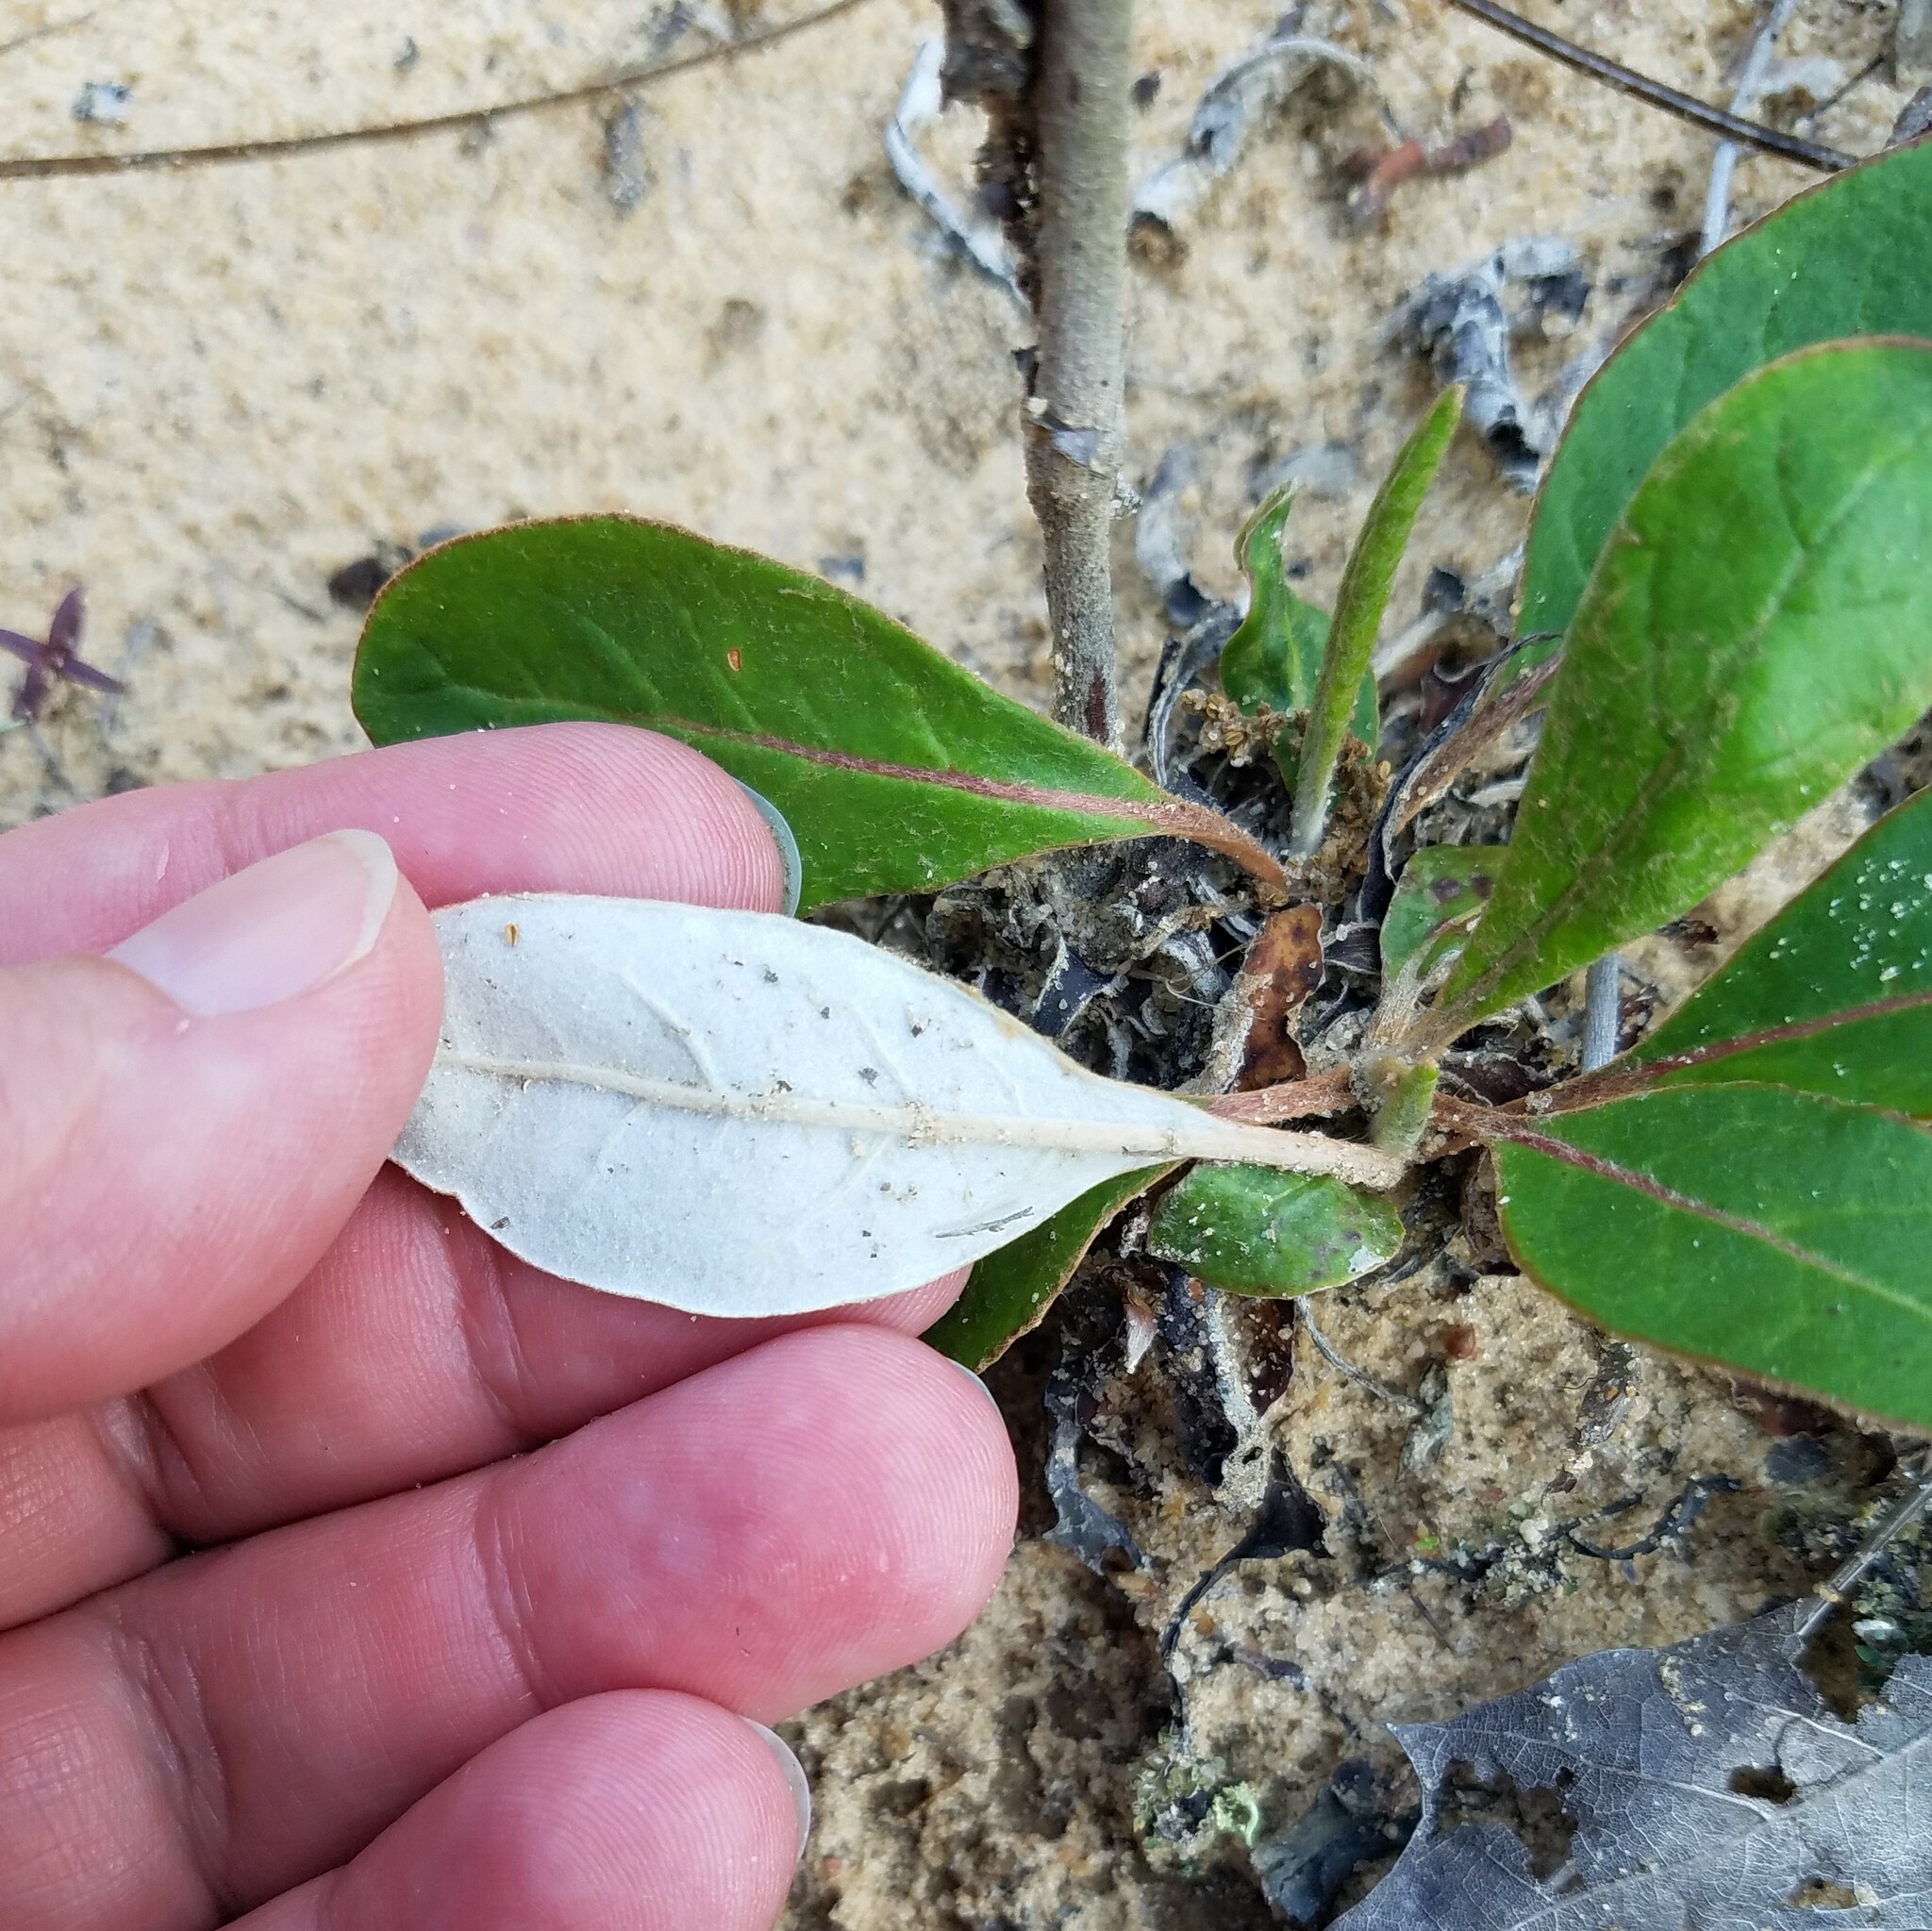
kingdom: Plantae
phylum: Tracheophyta
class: Magnoliopsida
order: Caryophyllales
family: Polygonaceae
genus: Eriogonum
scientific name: Eriogonum tomentosum
